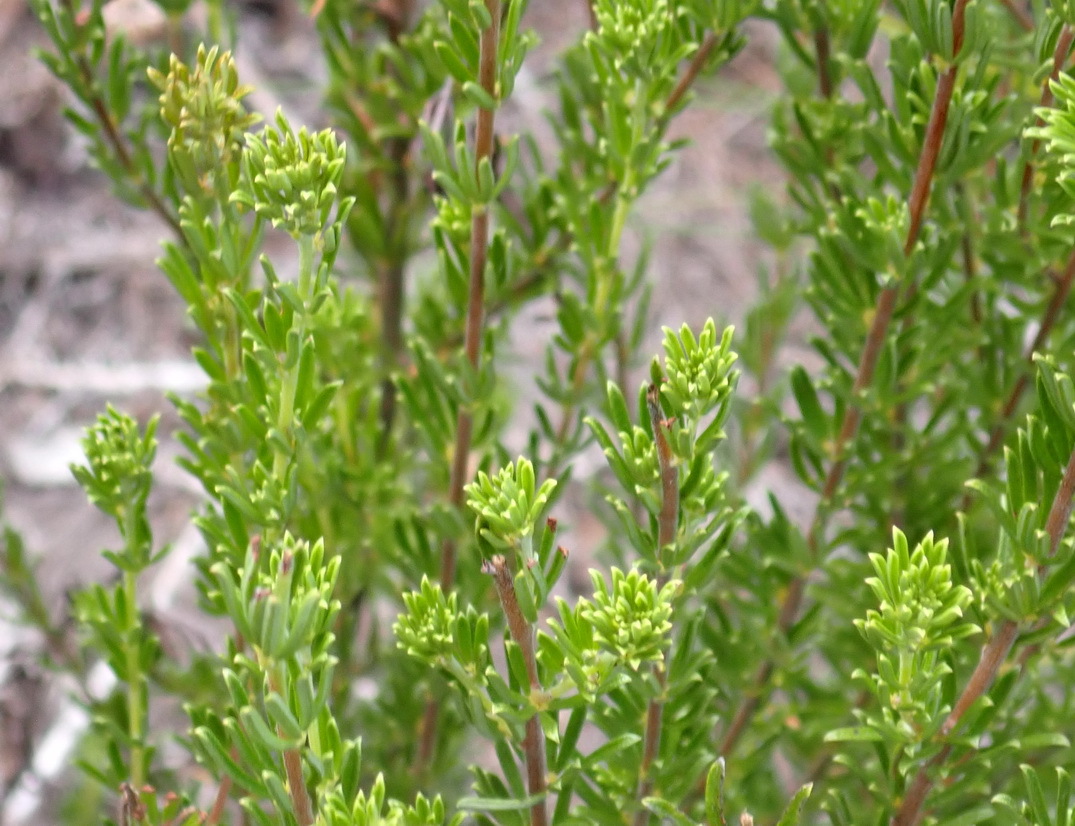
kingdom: Plantae
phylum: Tracheophyta
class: Magnoliopsida
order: Fabales
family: Fabaceae
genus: Indigofera
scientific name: Indigofera pappei
